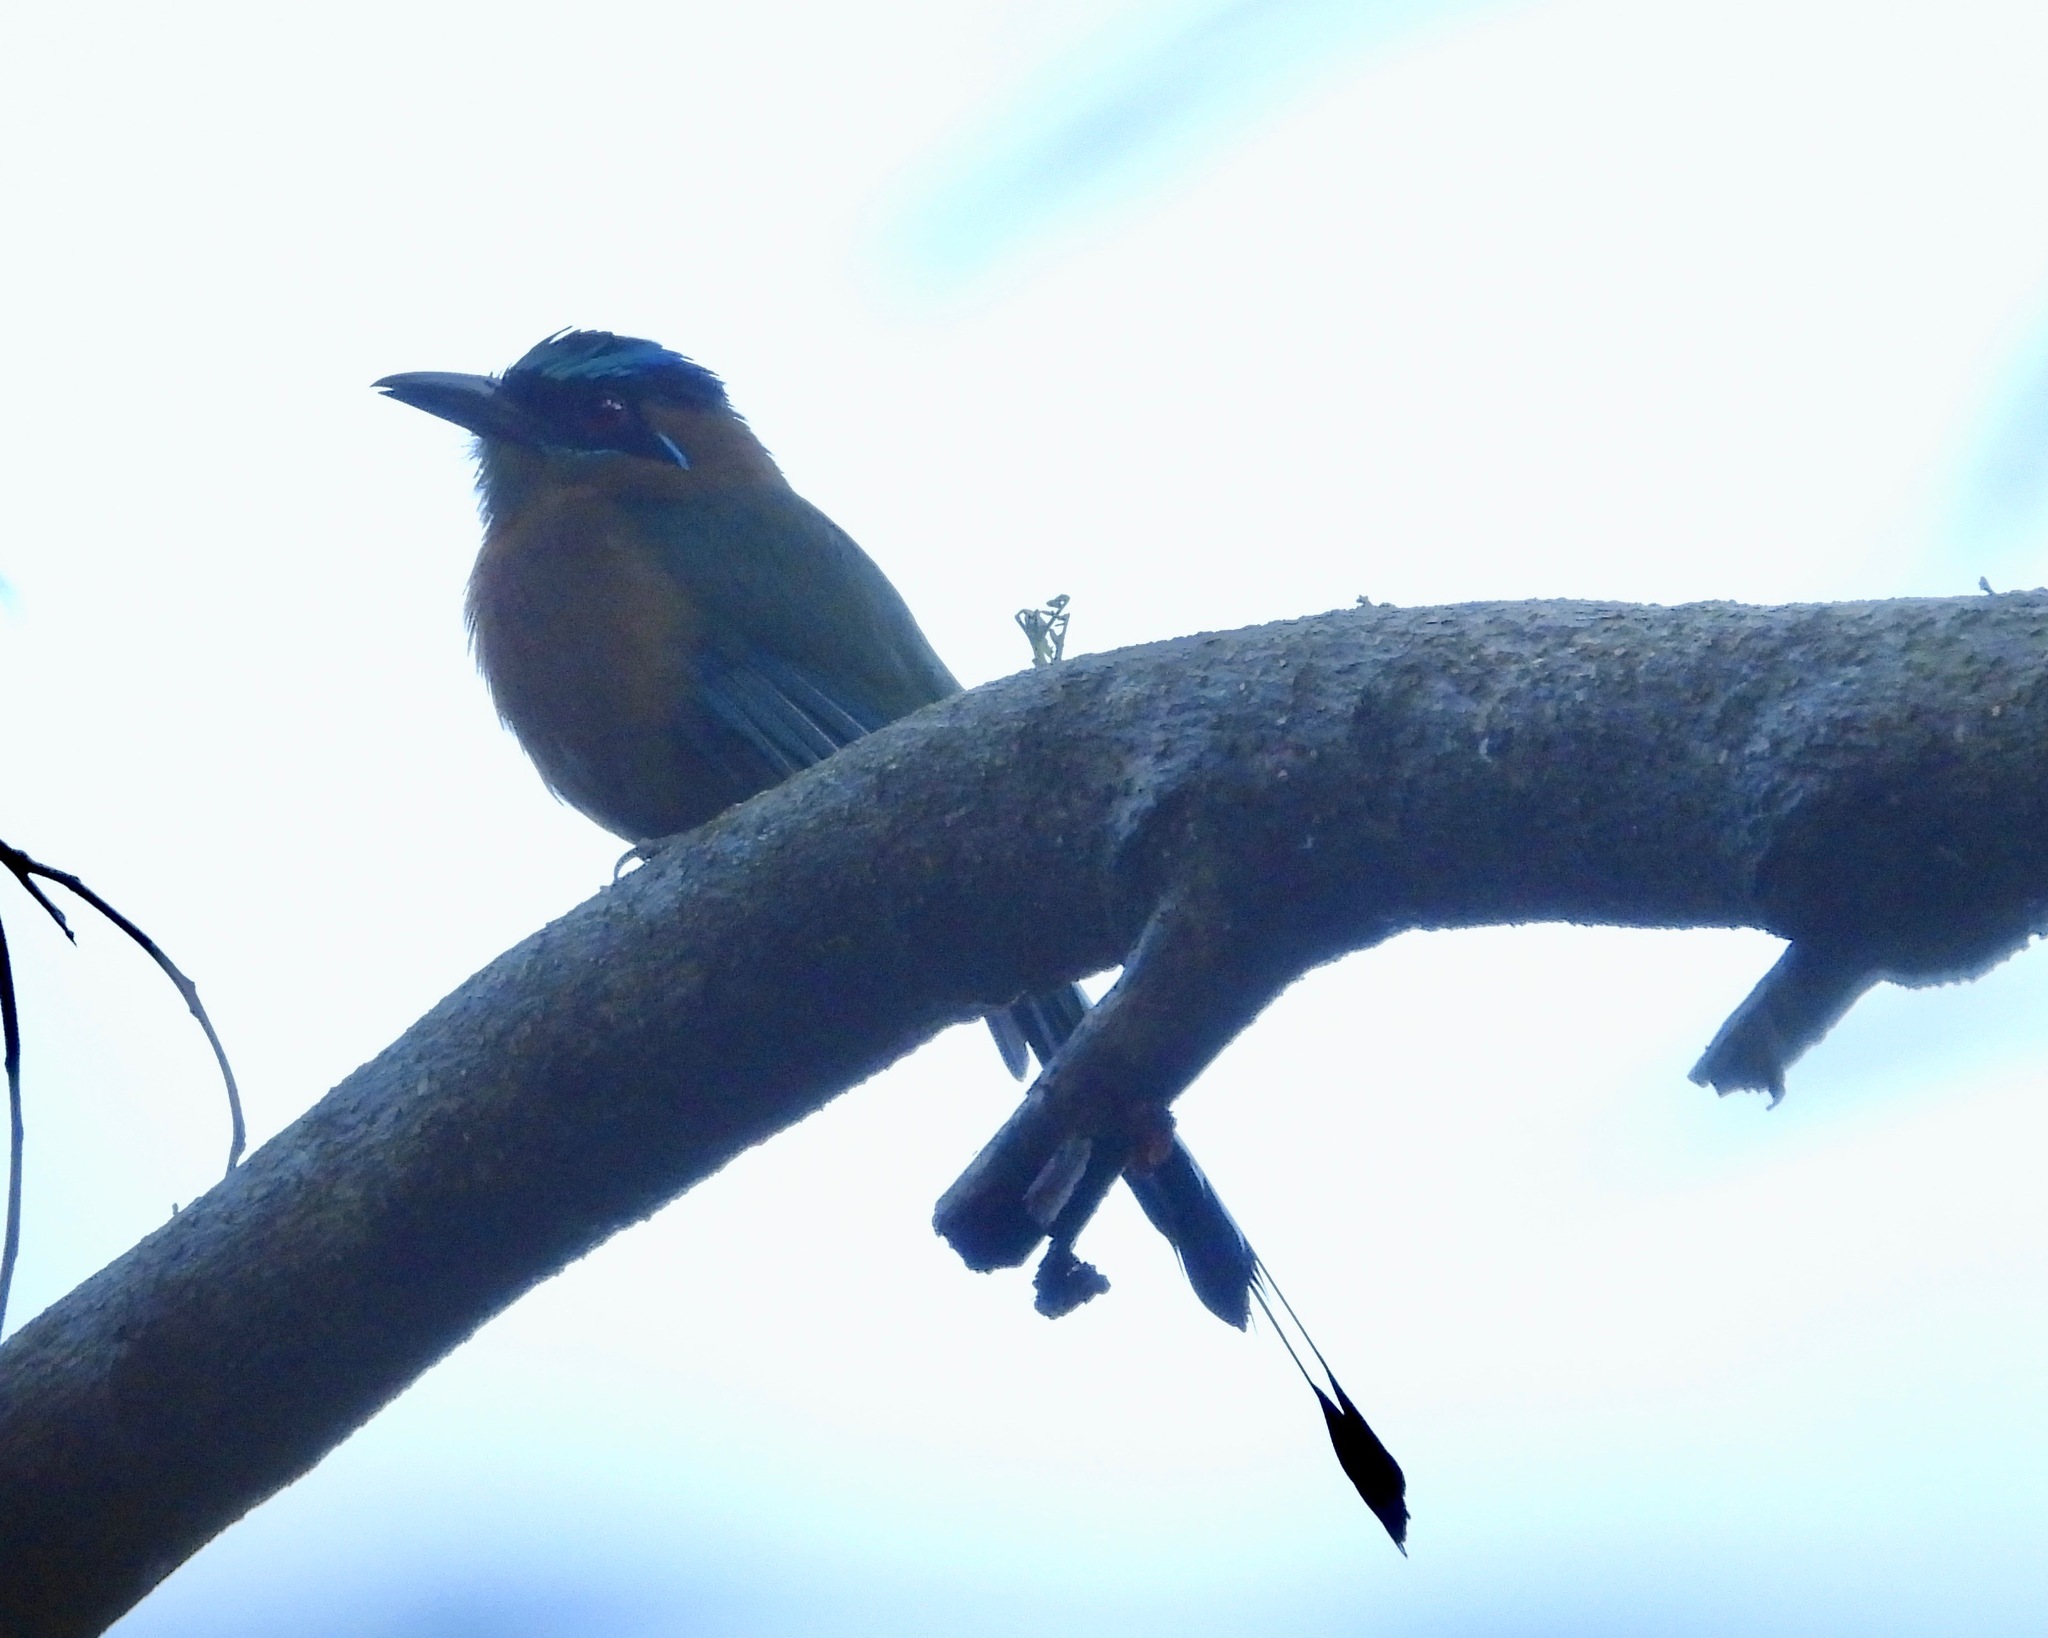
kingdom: Animalia
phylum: Chordata
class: Aves
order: Coraciiformes
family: Momotidae
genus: Momotus
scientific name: Momotus lessonii
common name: Lesson's motmot
